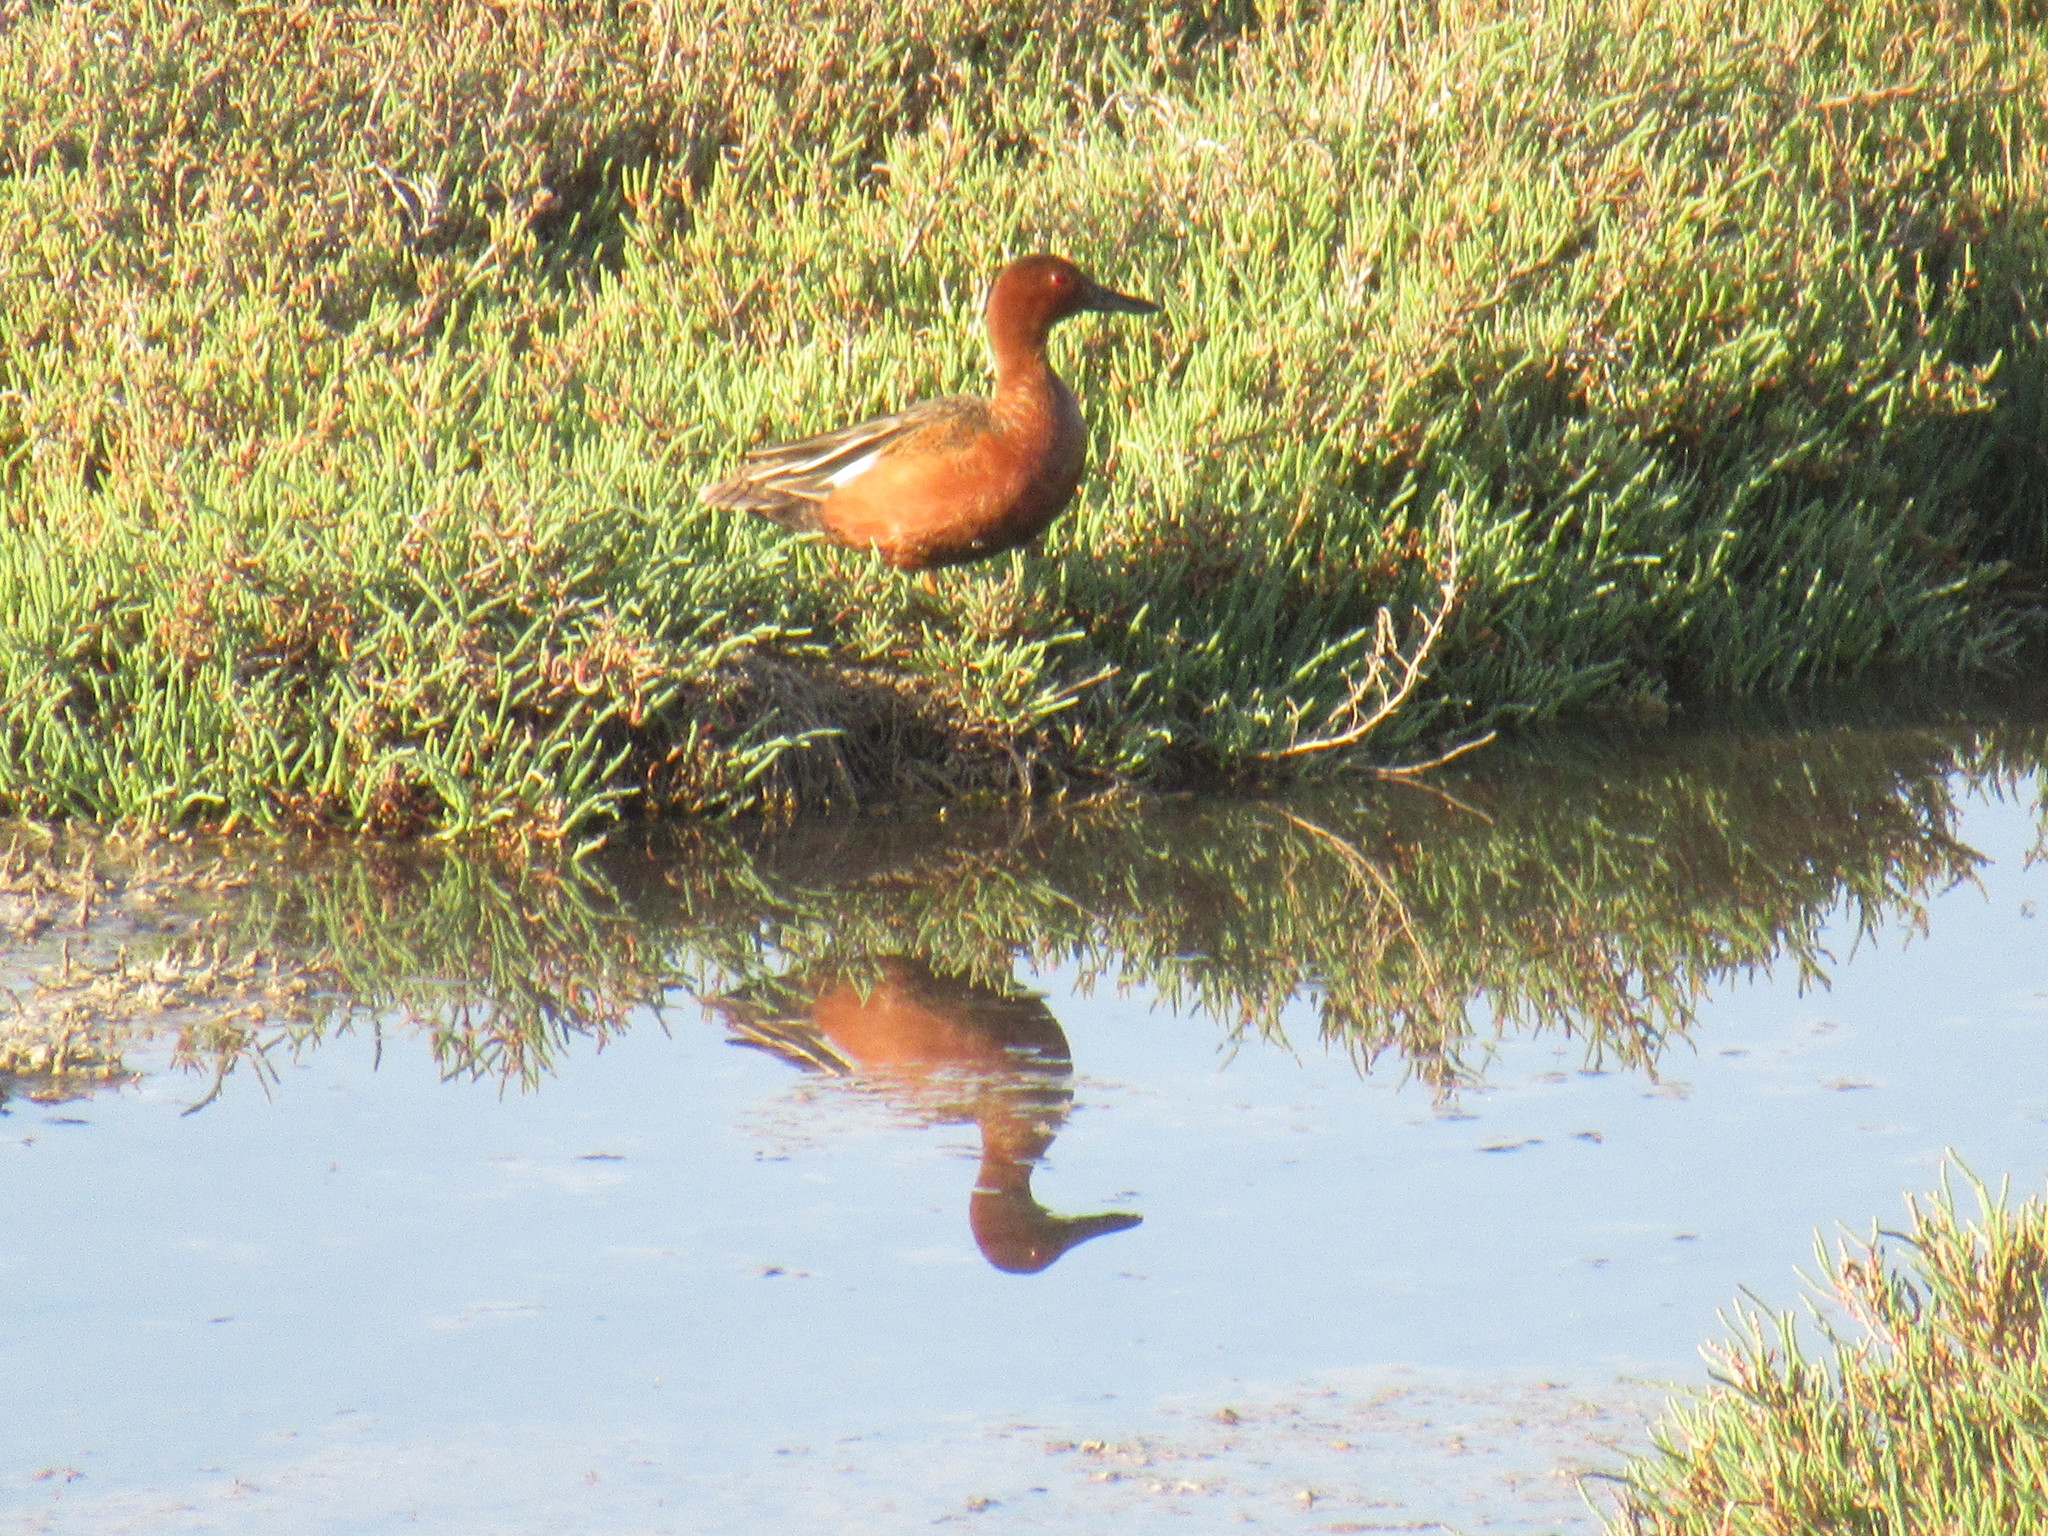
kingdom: Animalia
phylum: Chordata
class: Aves
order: Anseriformes
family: Anatidae
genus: Spatula
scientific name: Spatula cyanoptera
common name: Cinnamon teal
